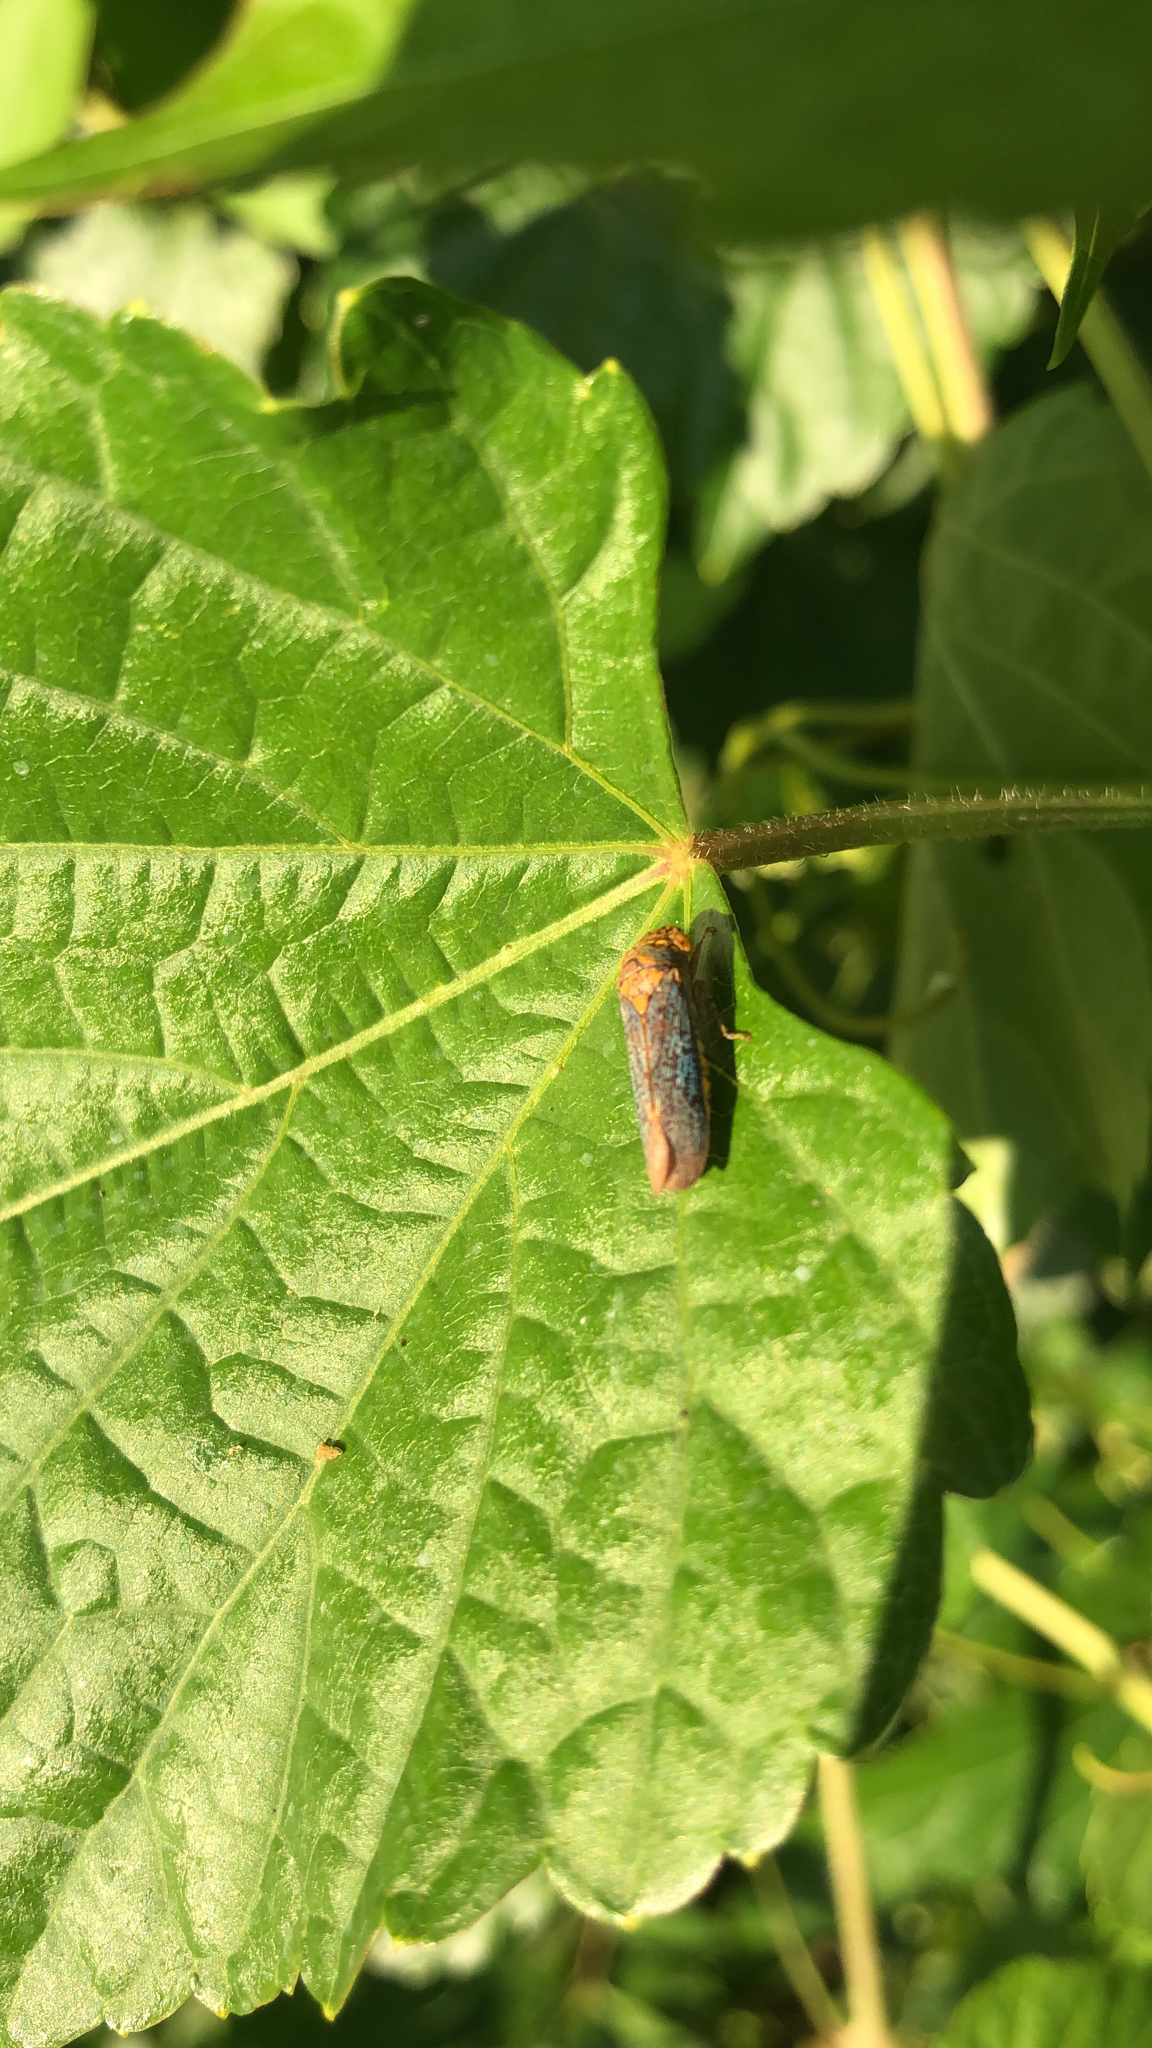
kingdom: Animalia
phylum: Arthropoda
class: Insecta
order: Hemiptera
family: Cicadellidae
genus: Oncometopia
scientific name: Oncometopia orbona
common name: Broad-headed sharpshooter
